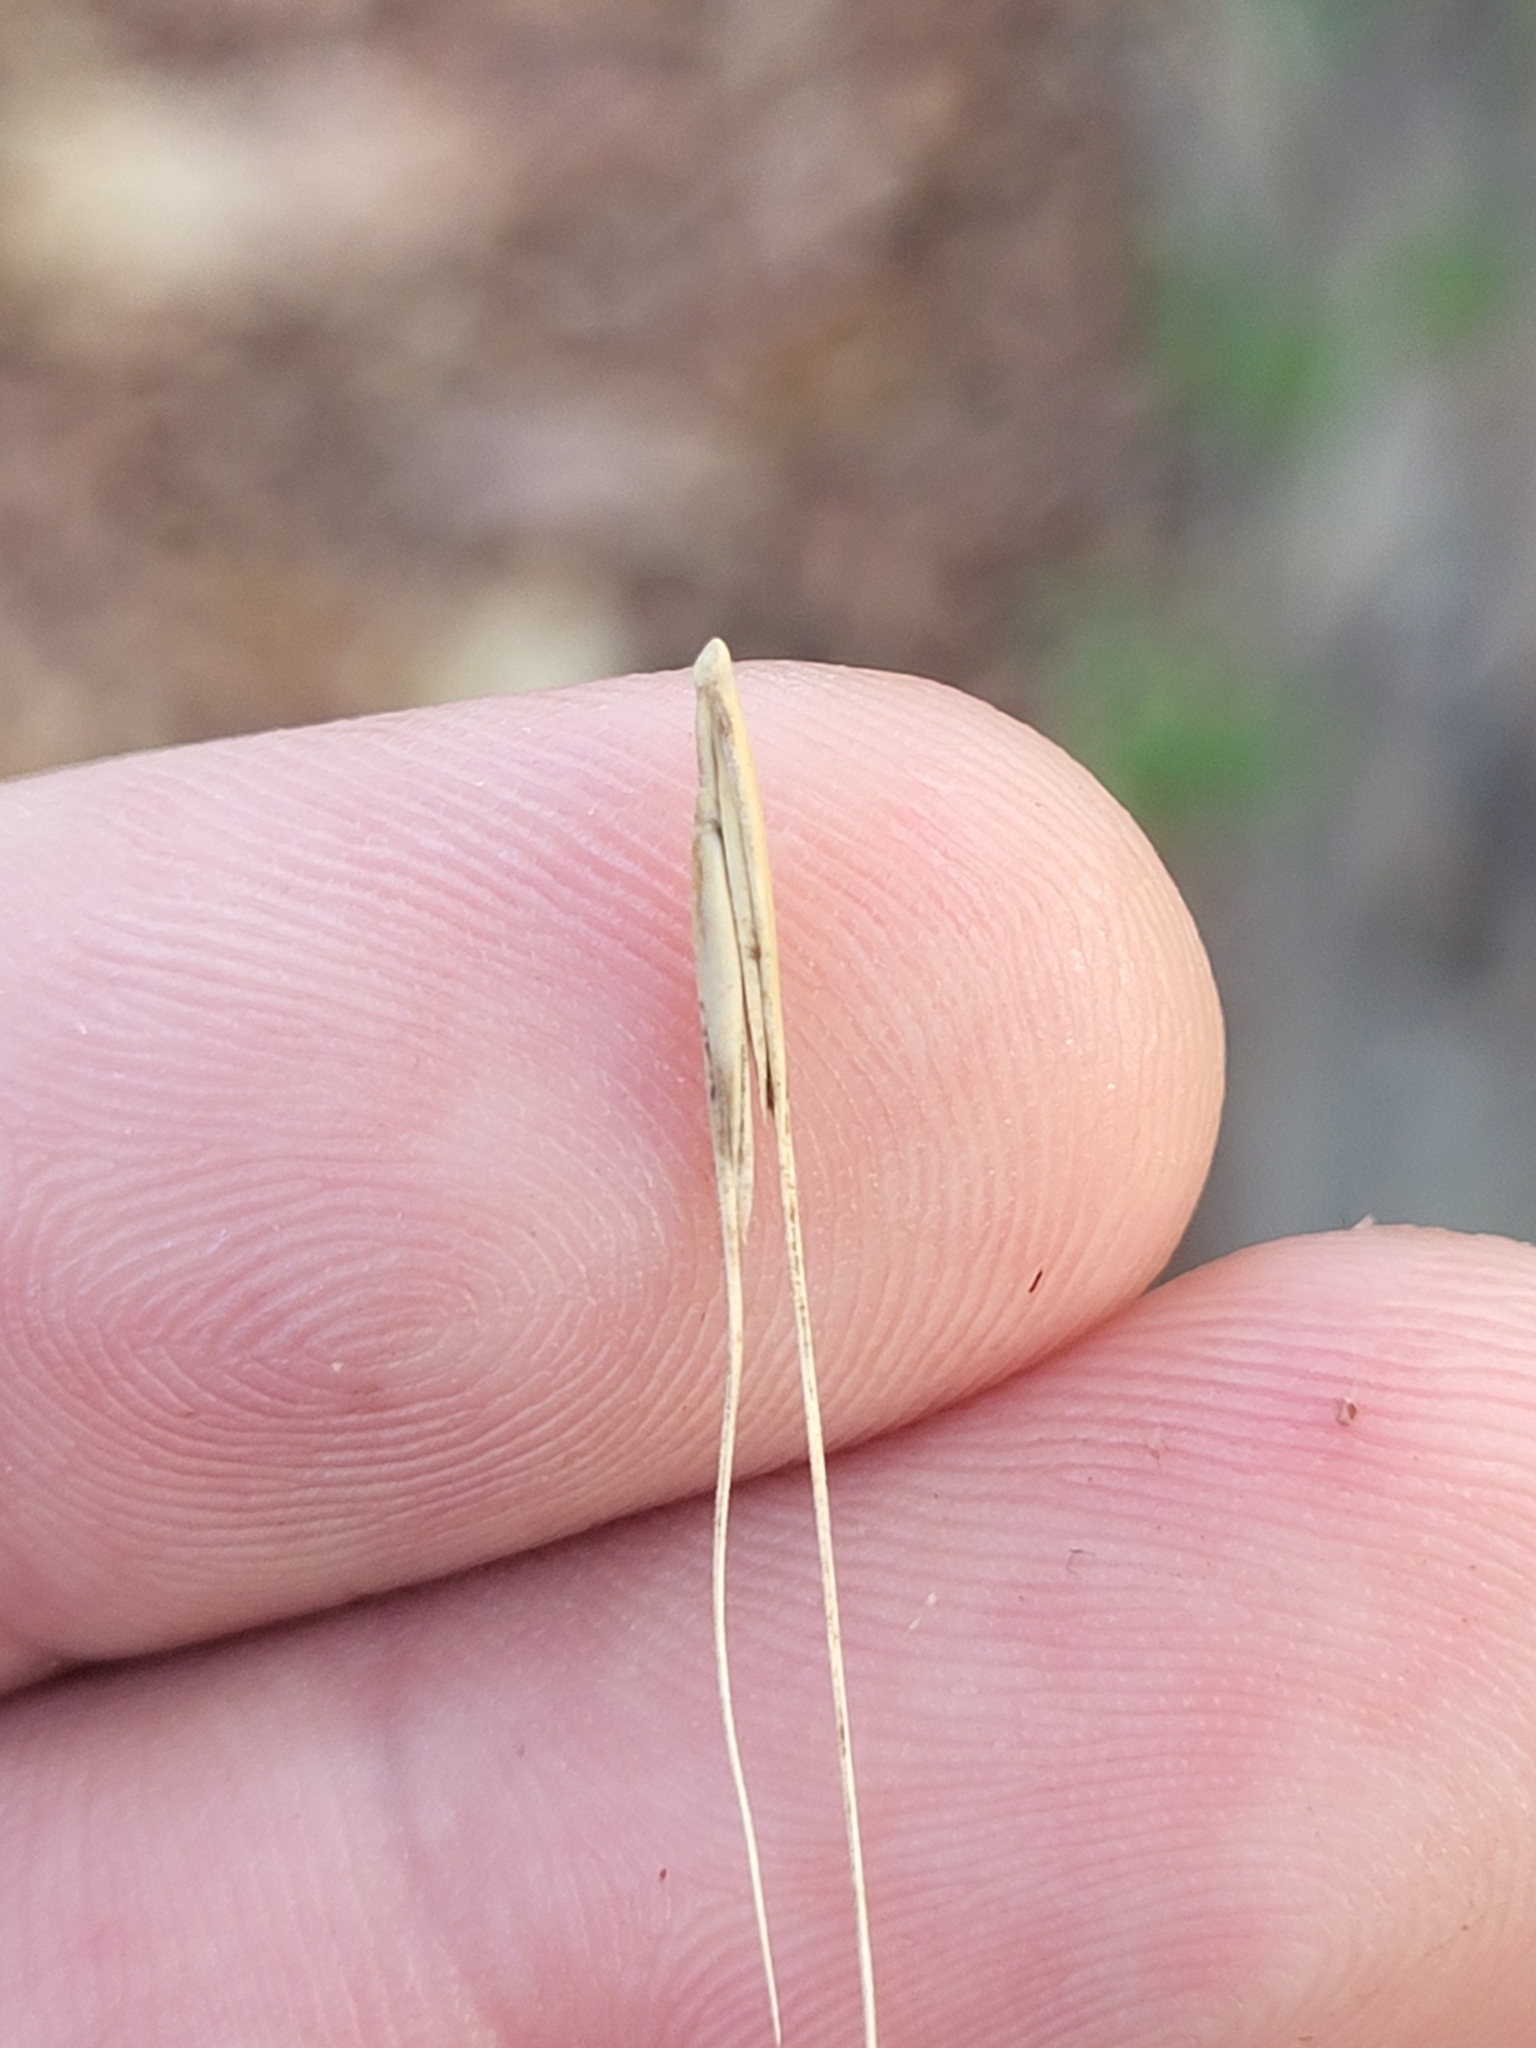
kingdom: Plantae
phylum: Tracheophyta
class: Liliopsida
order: Poales
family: Poaceae
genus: Elymus
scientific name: Elymus hystrix
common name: Bottlebrush grass
